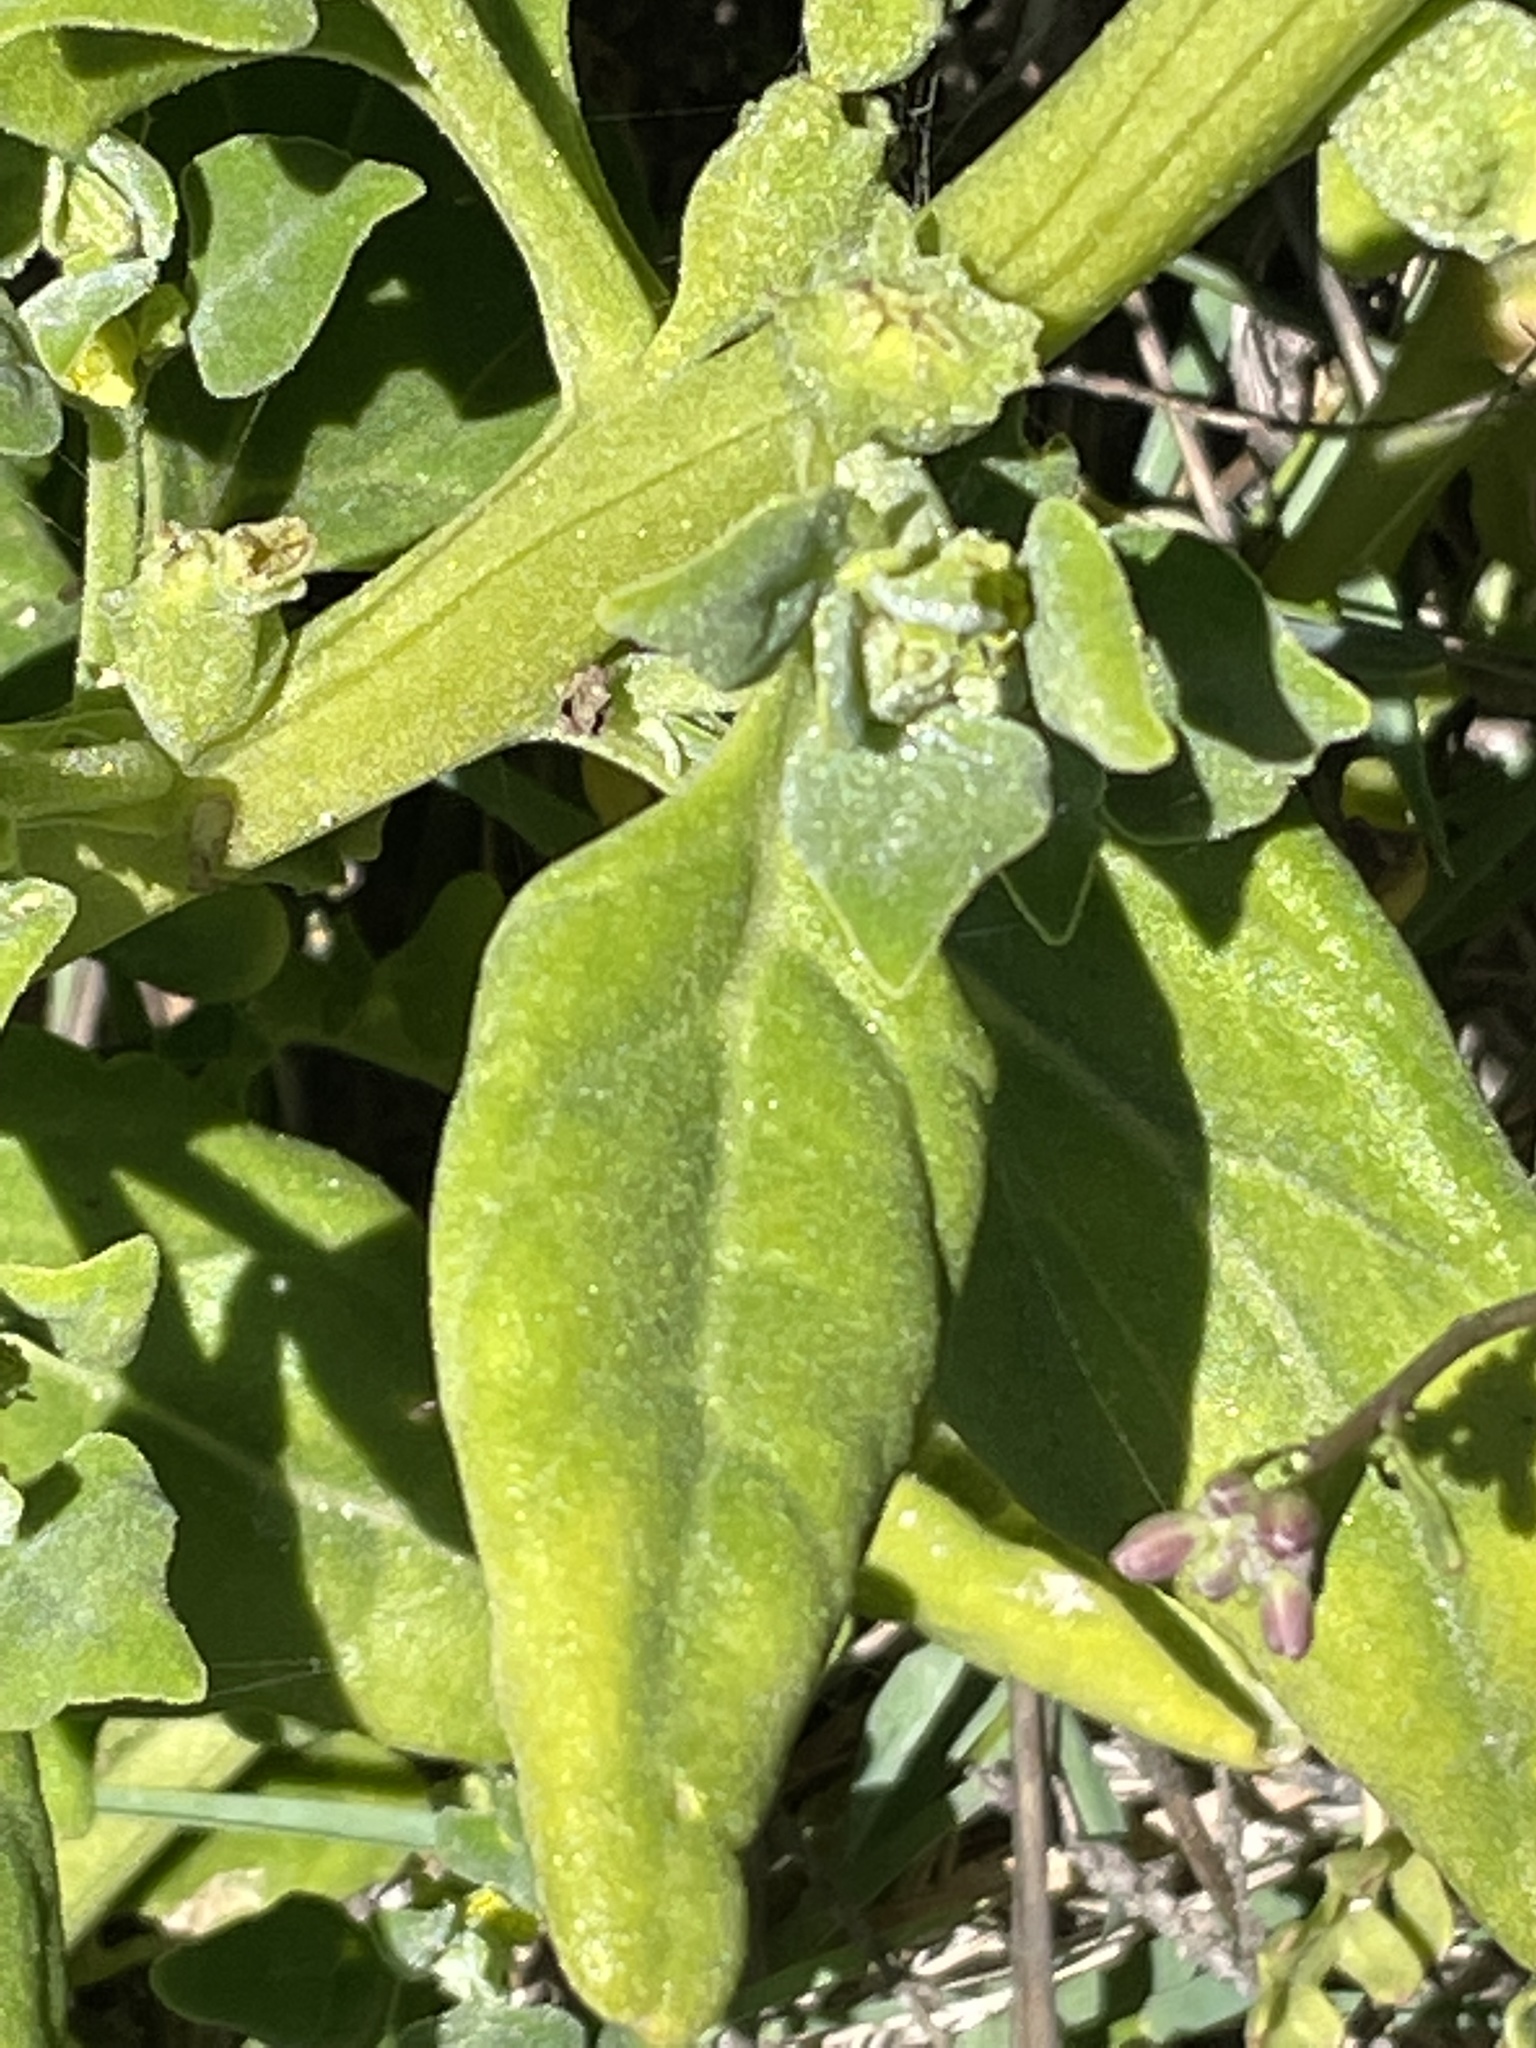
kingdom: Plantae
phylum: Tracheophyta
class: Magnoliopsida
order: Caryophyllales
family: Aizoaceae
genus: Tetragonia
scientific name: Tetragonia tetragonoides
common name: New zealand-spinach
